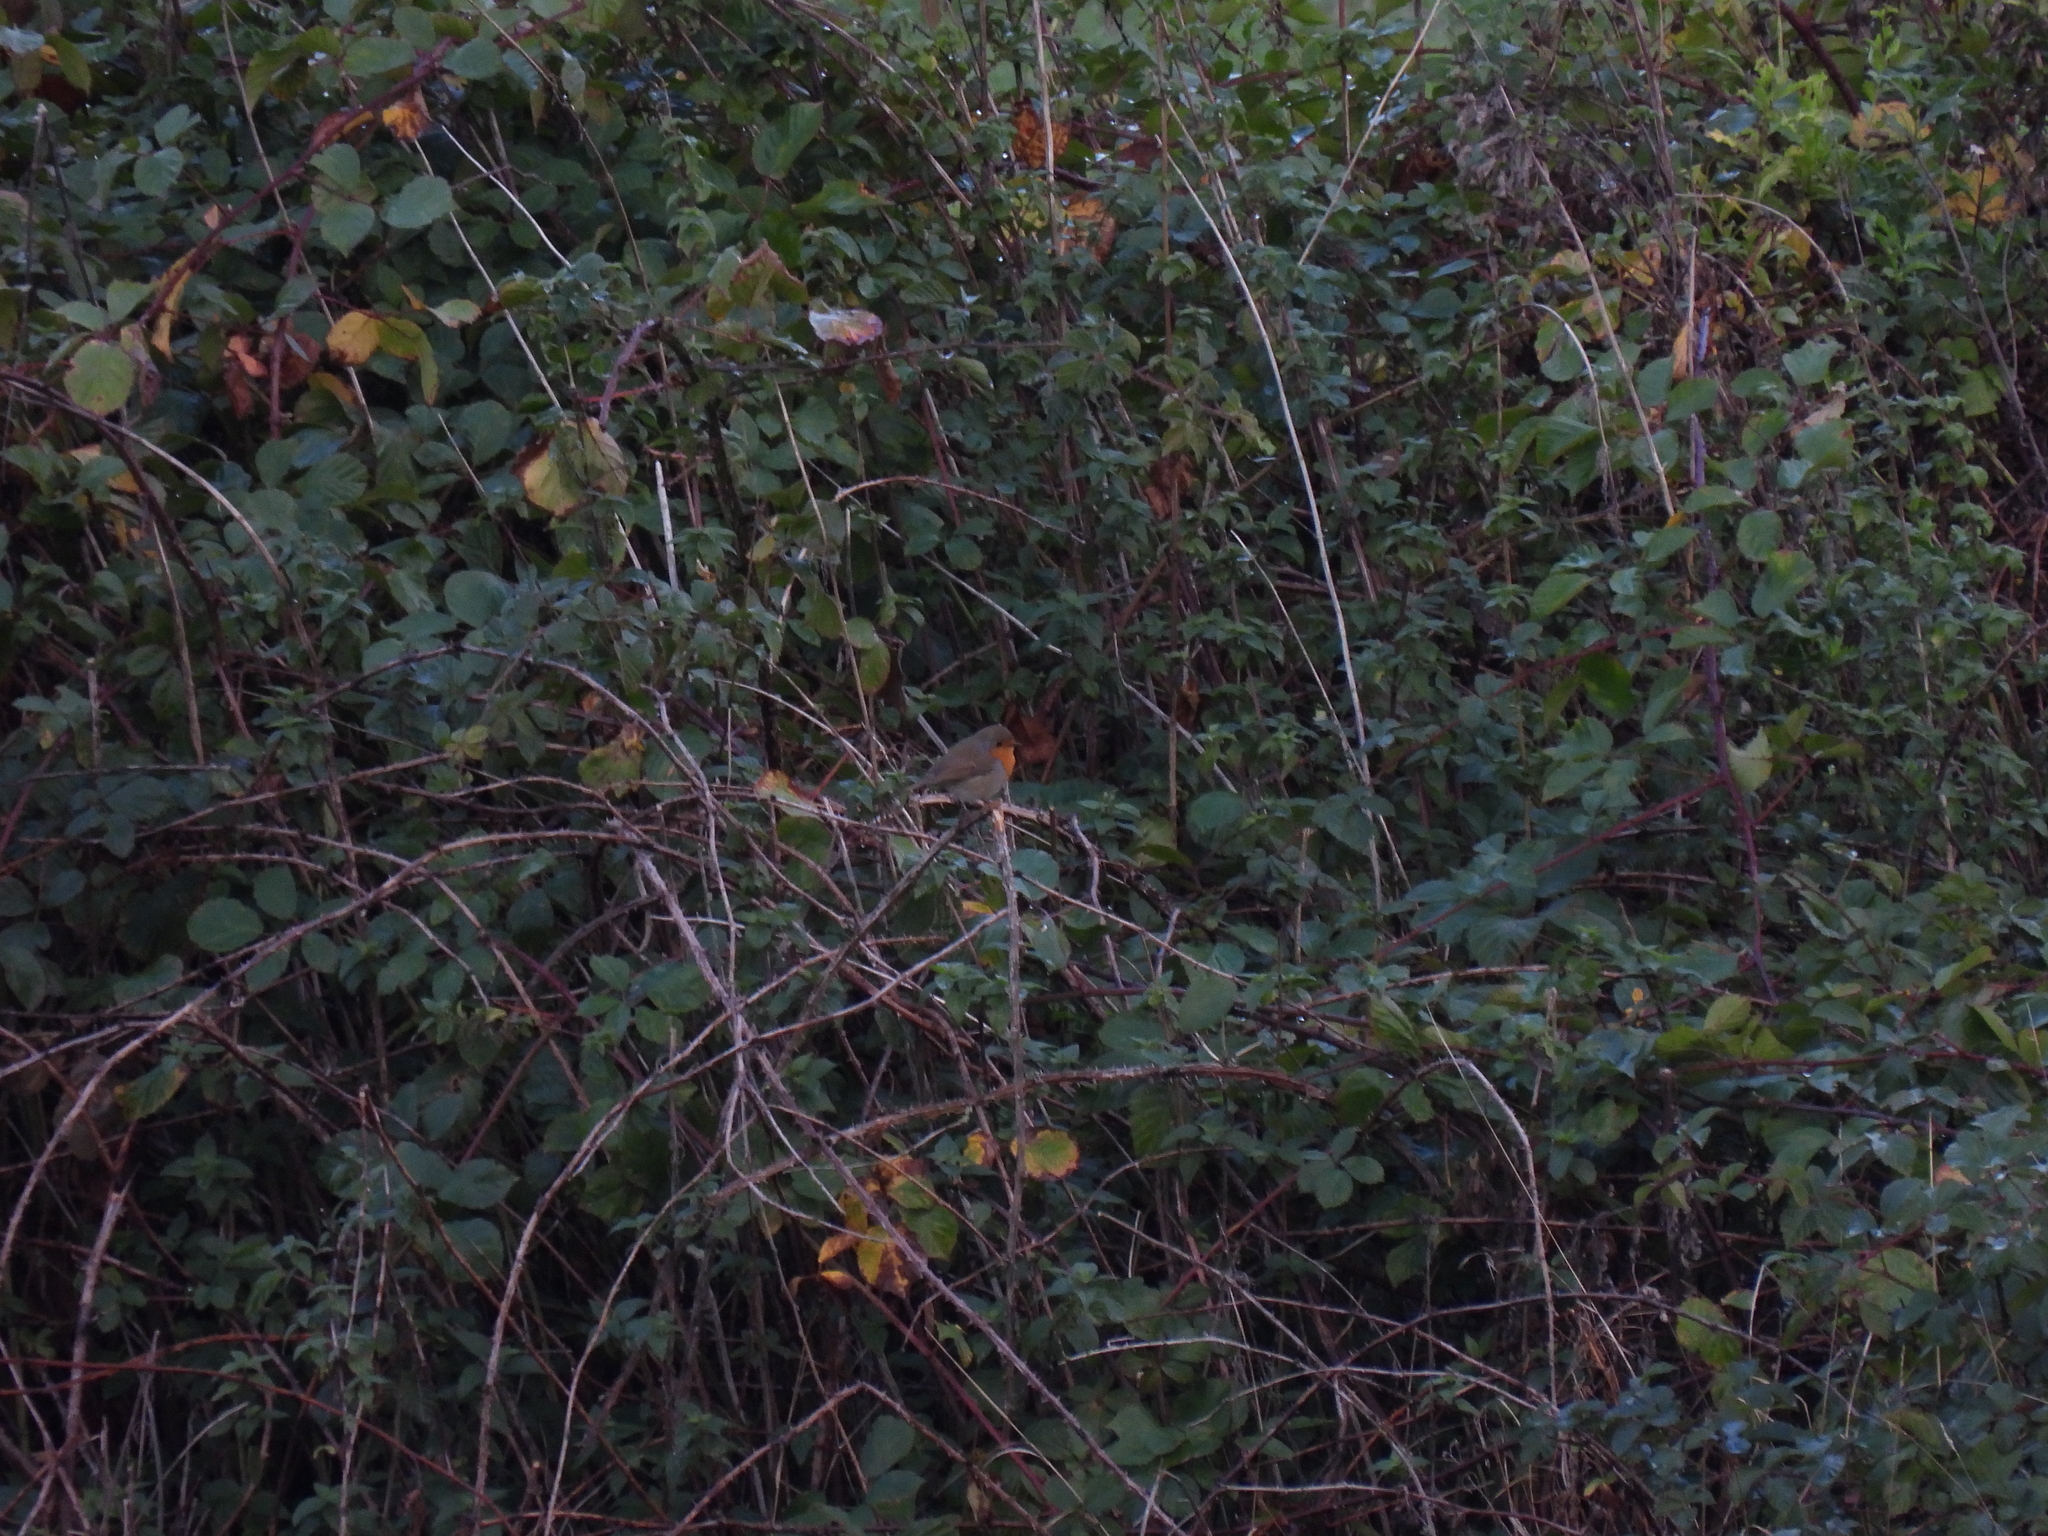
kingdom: Animalia
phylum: Chordata
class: Aves
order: Passeriformes
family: Muscicapidae
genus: Erithacus
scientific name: Erithacus rubecula
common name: European robin
